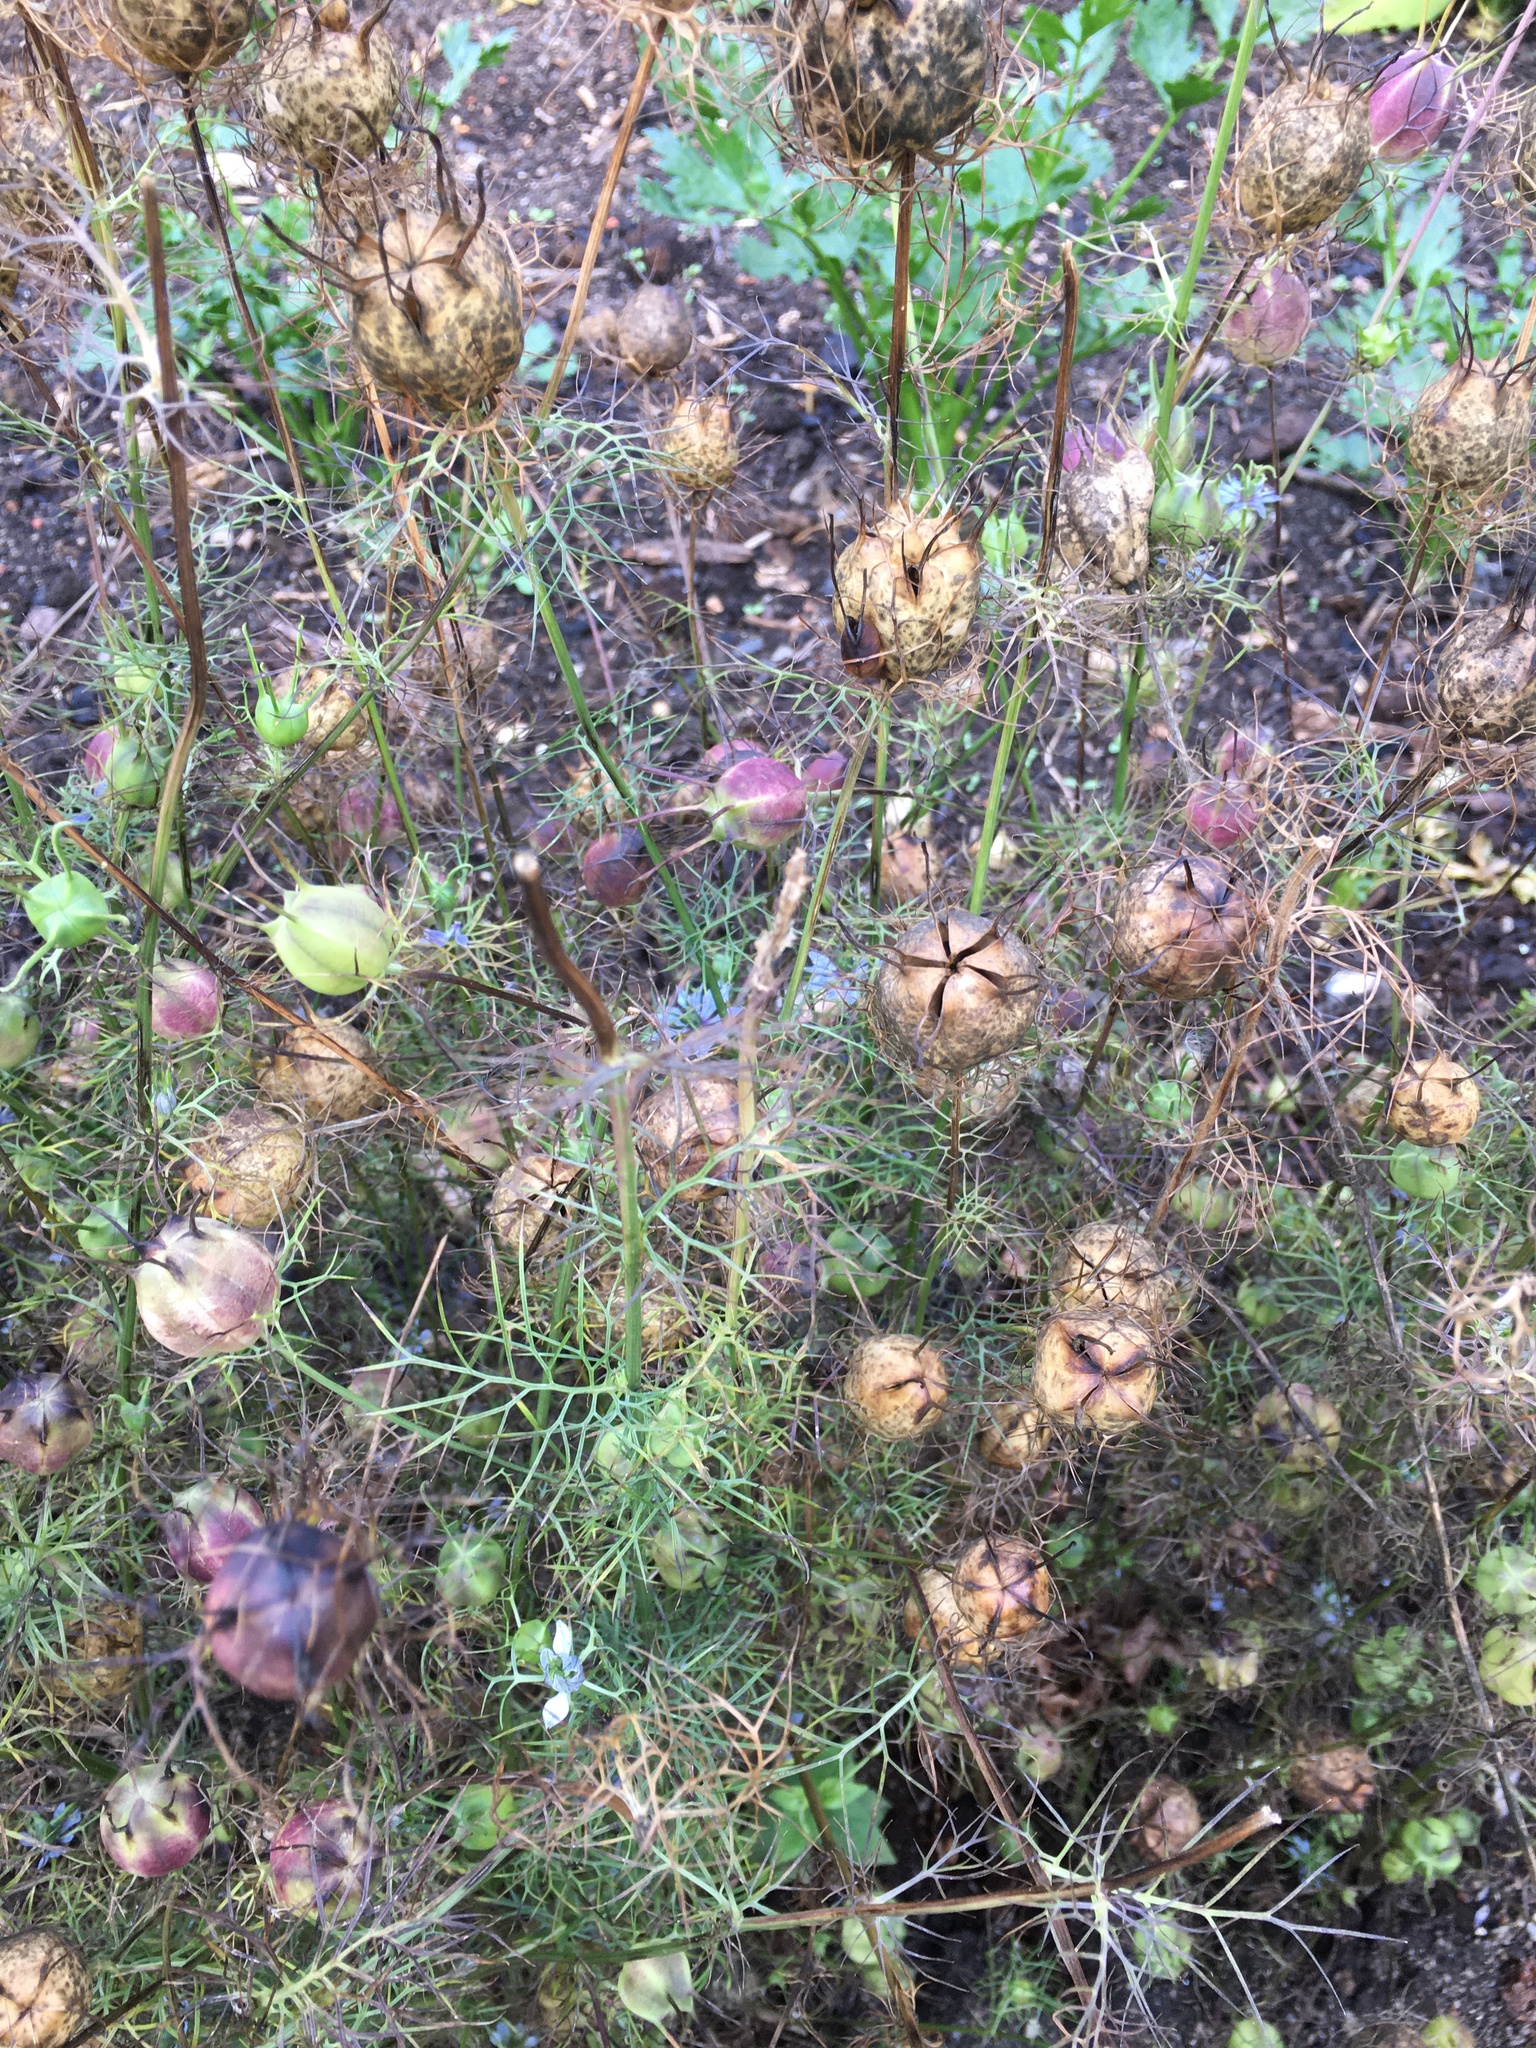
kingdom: Plantae
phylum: Tracheophyta
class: Magnoliopsida
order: Ranunculales
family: Ranunculaceae
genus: Nigella
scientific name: Nigella damascena
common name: Love-in-a-mist
